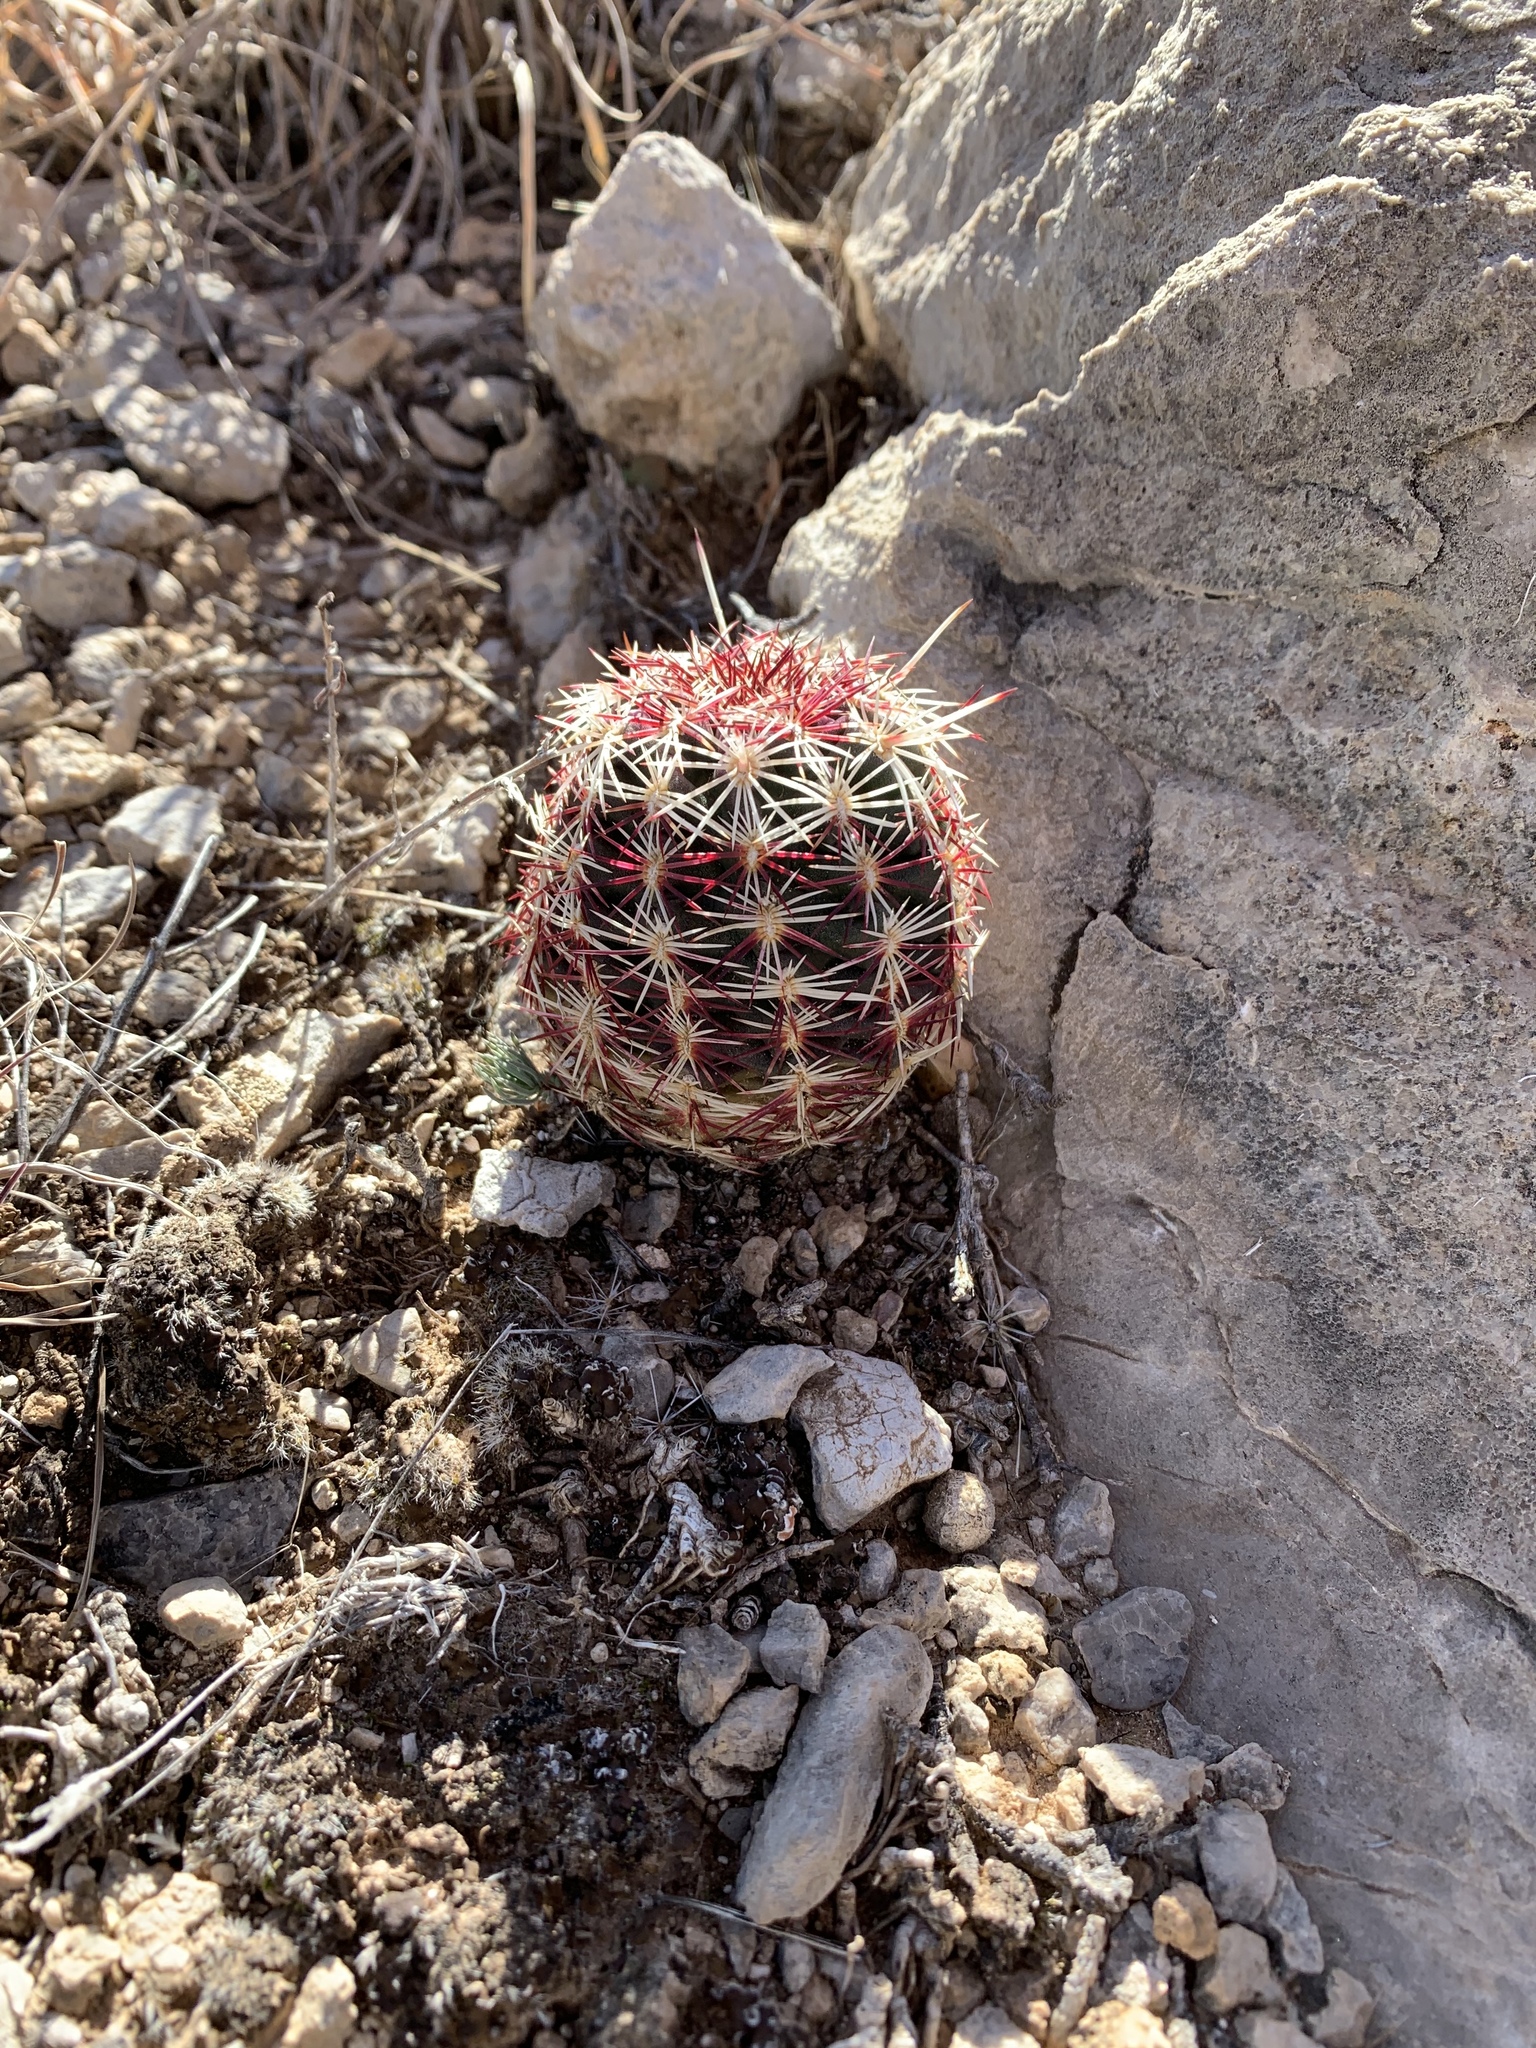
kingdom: Plantae
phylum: Tracheophyta
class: Magnoliopsida
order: Caryophyllales
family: Cactaceae
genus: Echinocereus
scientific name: Echinocereus viridiflorus
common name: Nylon hedgehog cactus
